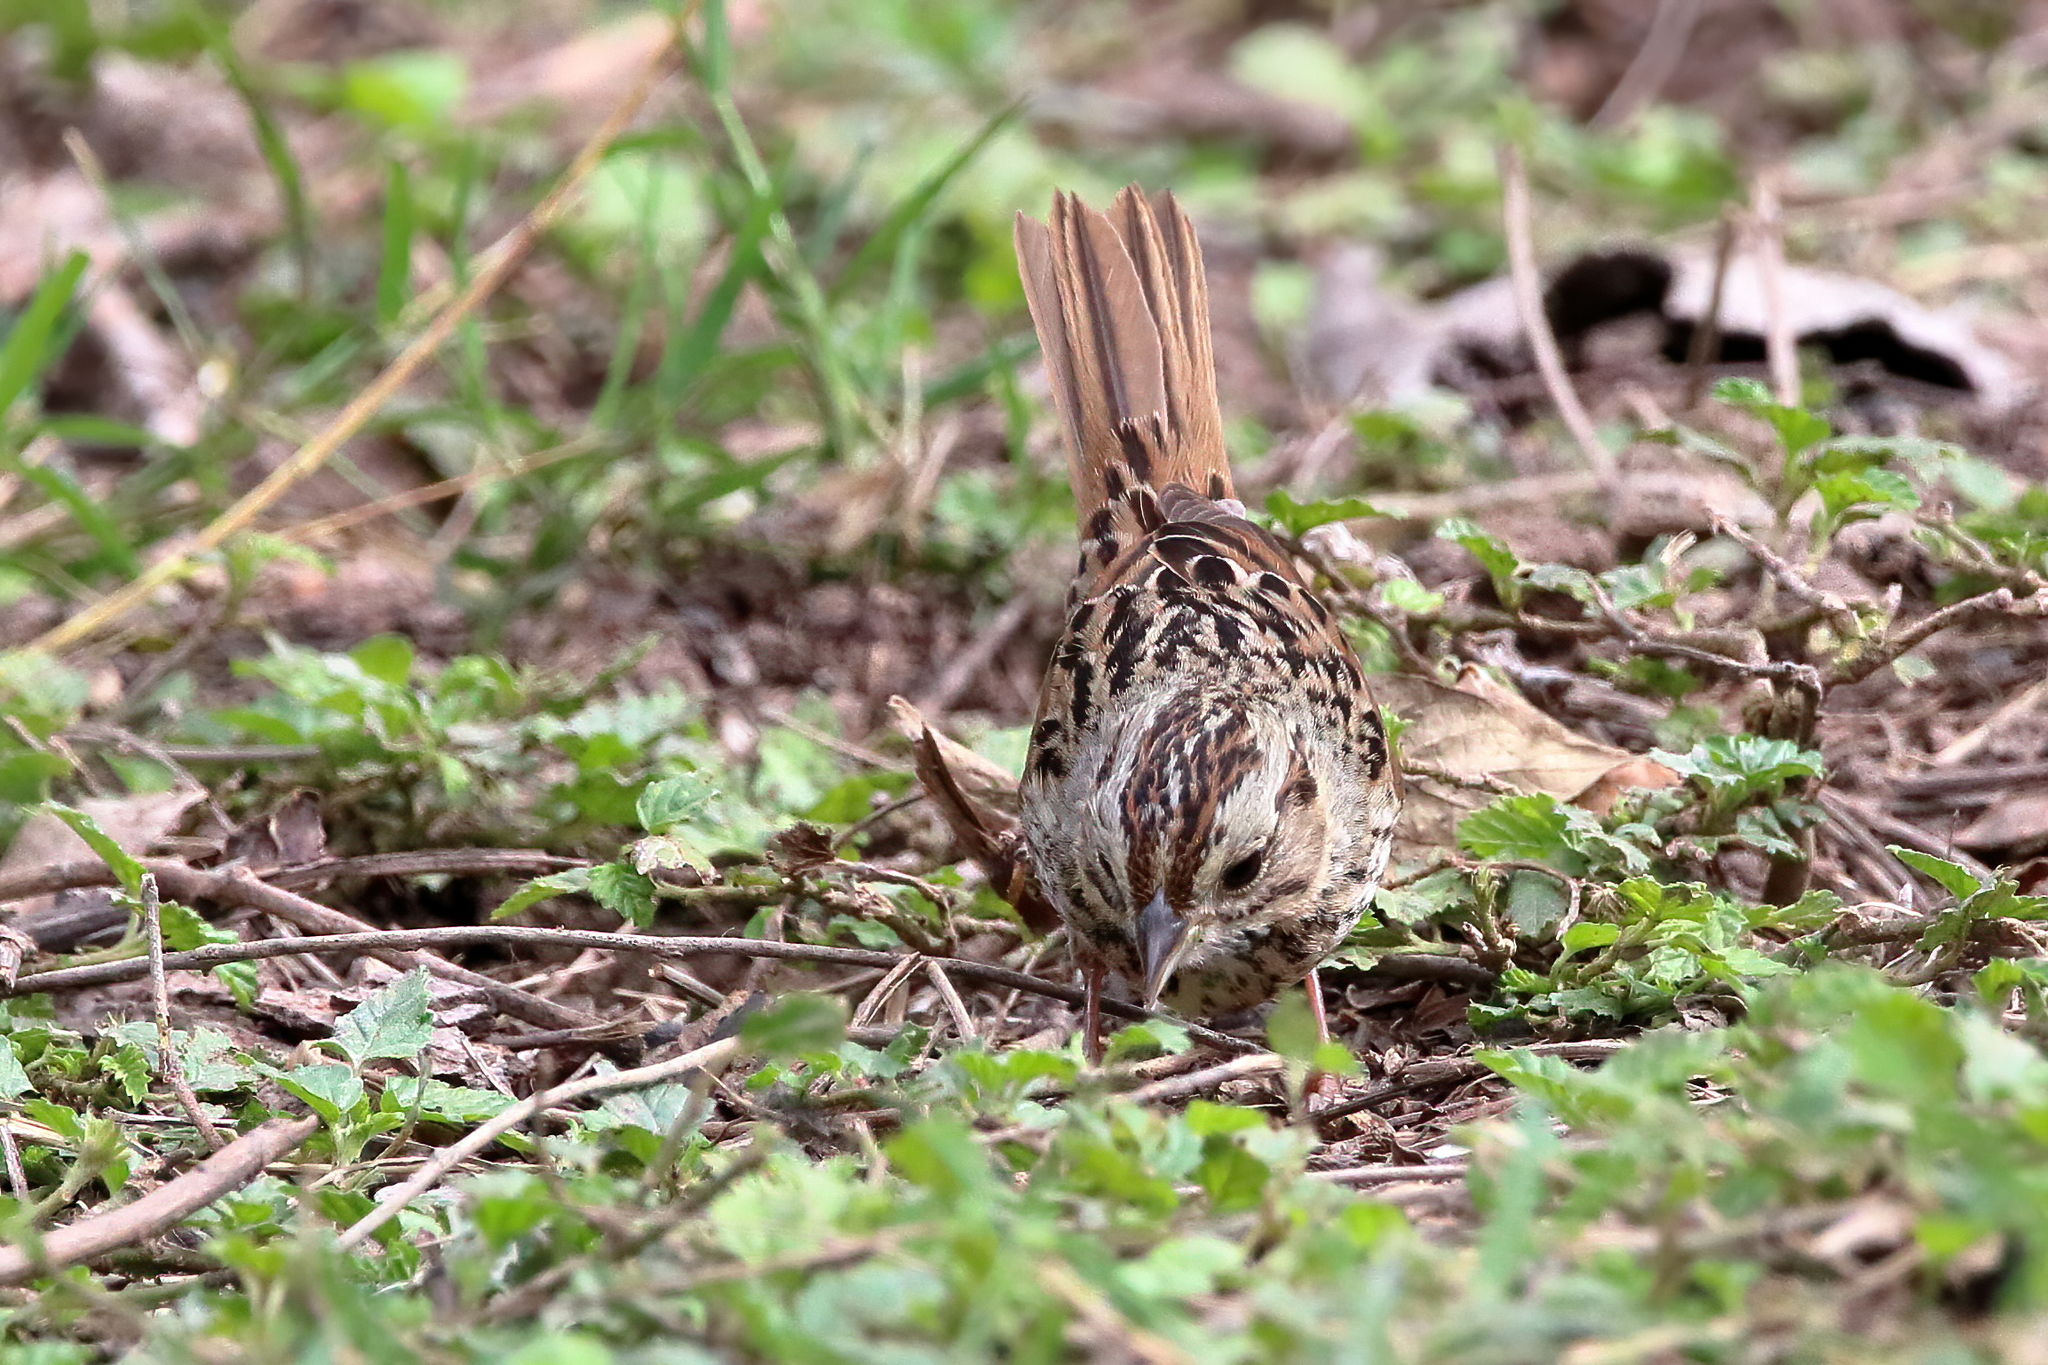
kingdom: Animalia
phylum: Chordata
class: Aves
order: Passeriformes
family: Passerellidae
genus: Melospiza
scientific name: Melospiza lincolnii
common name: Lincoln's sparrow
